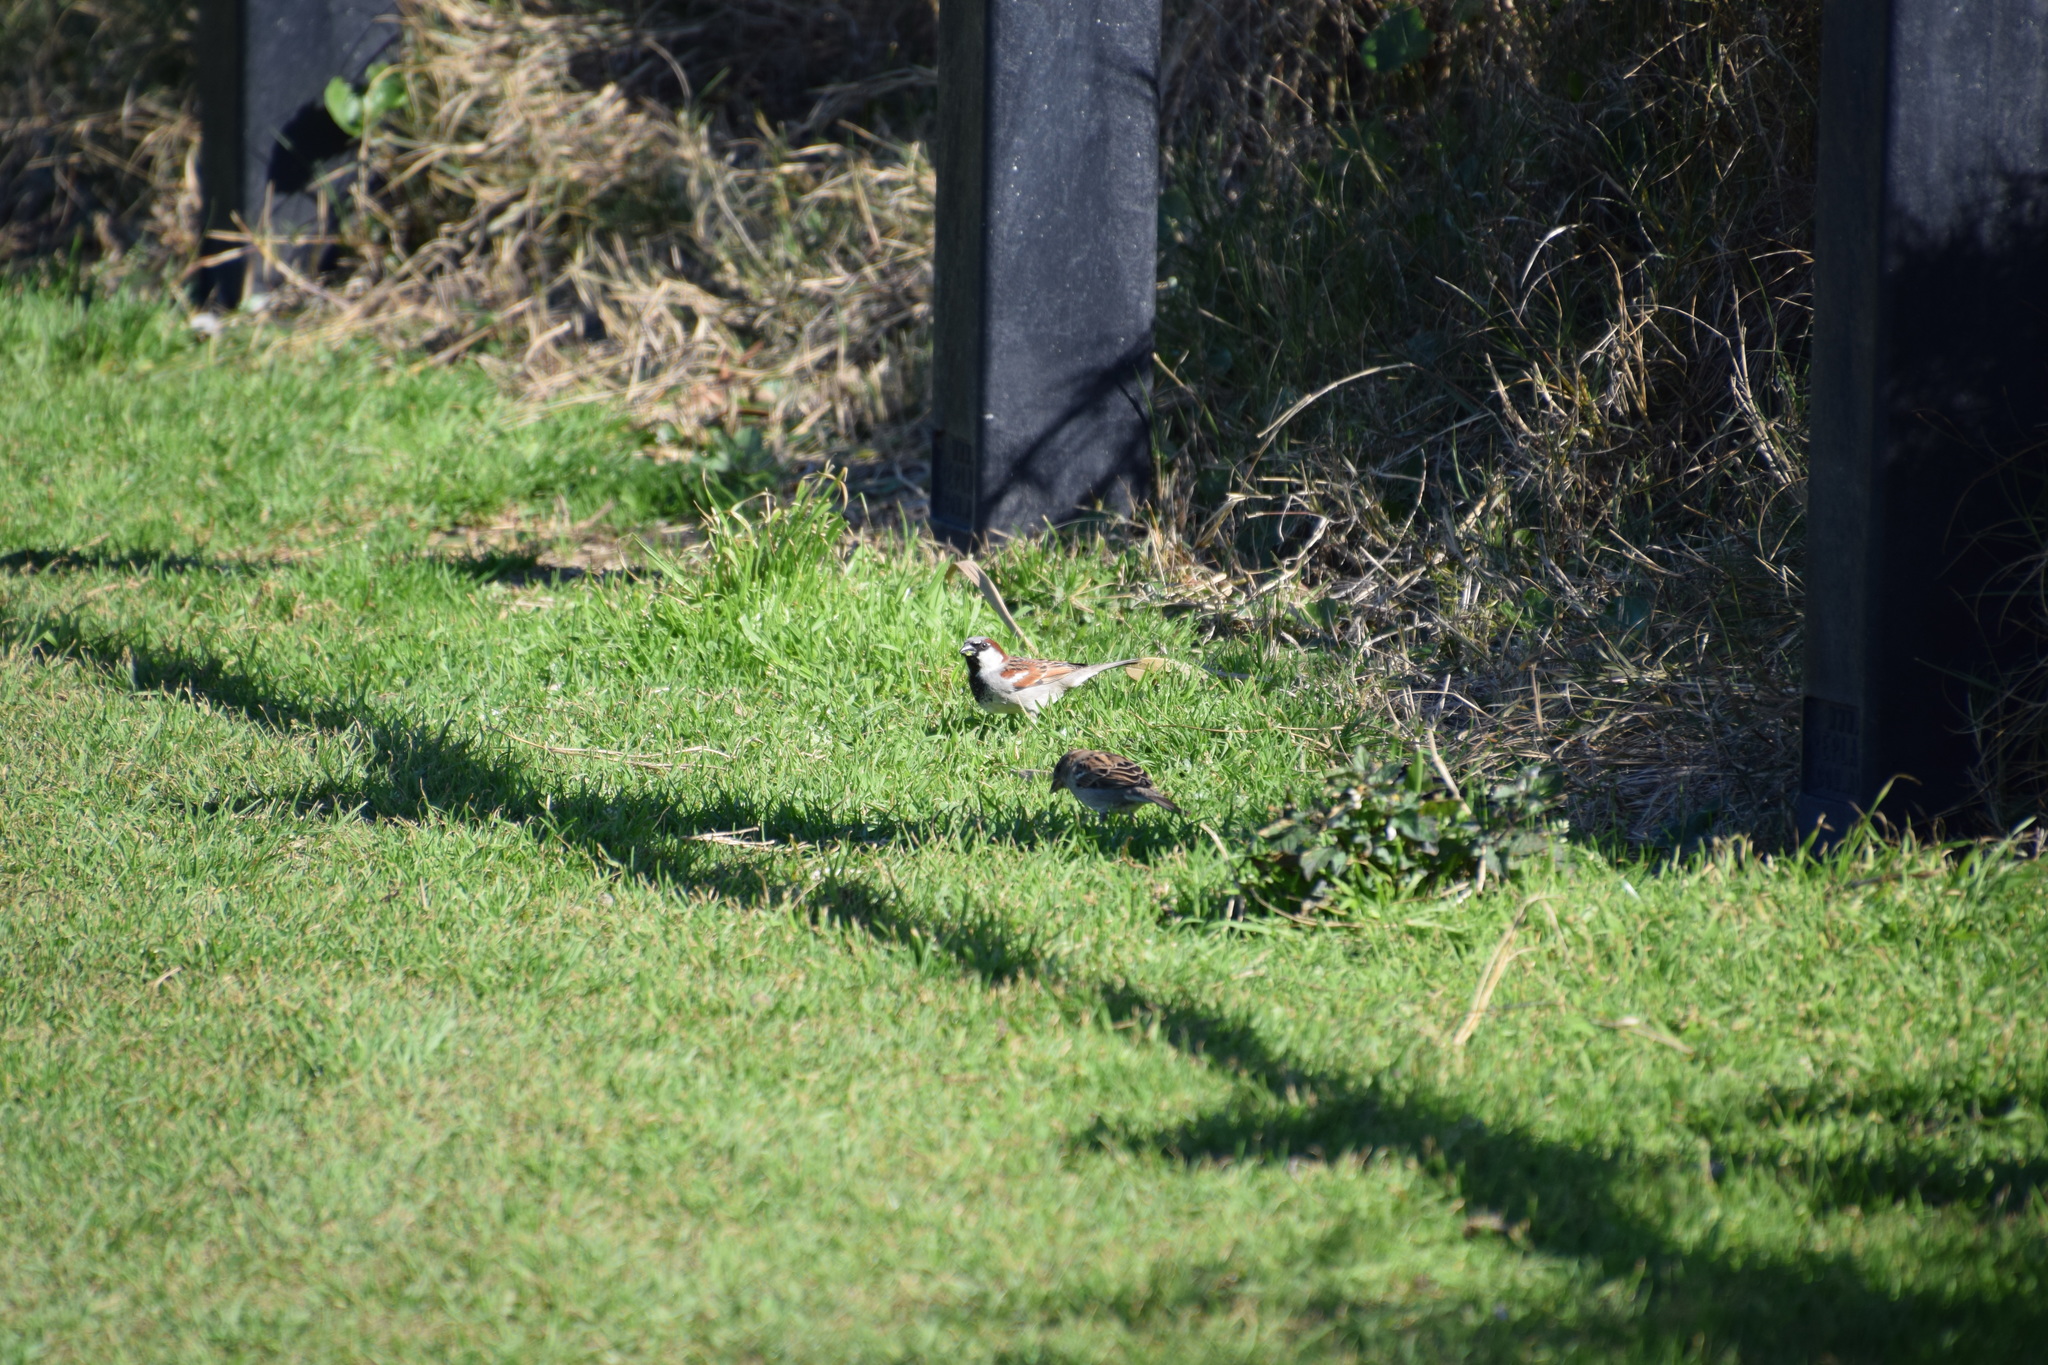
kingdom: Animalia
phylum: Chordata
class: Aves
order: Passeriformes
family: Passeridae
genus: Passer
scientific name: Passer domesticus
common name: House sparrow
